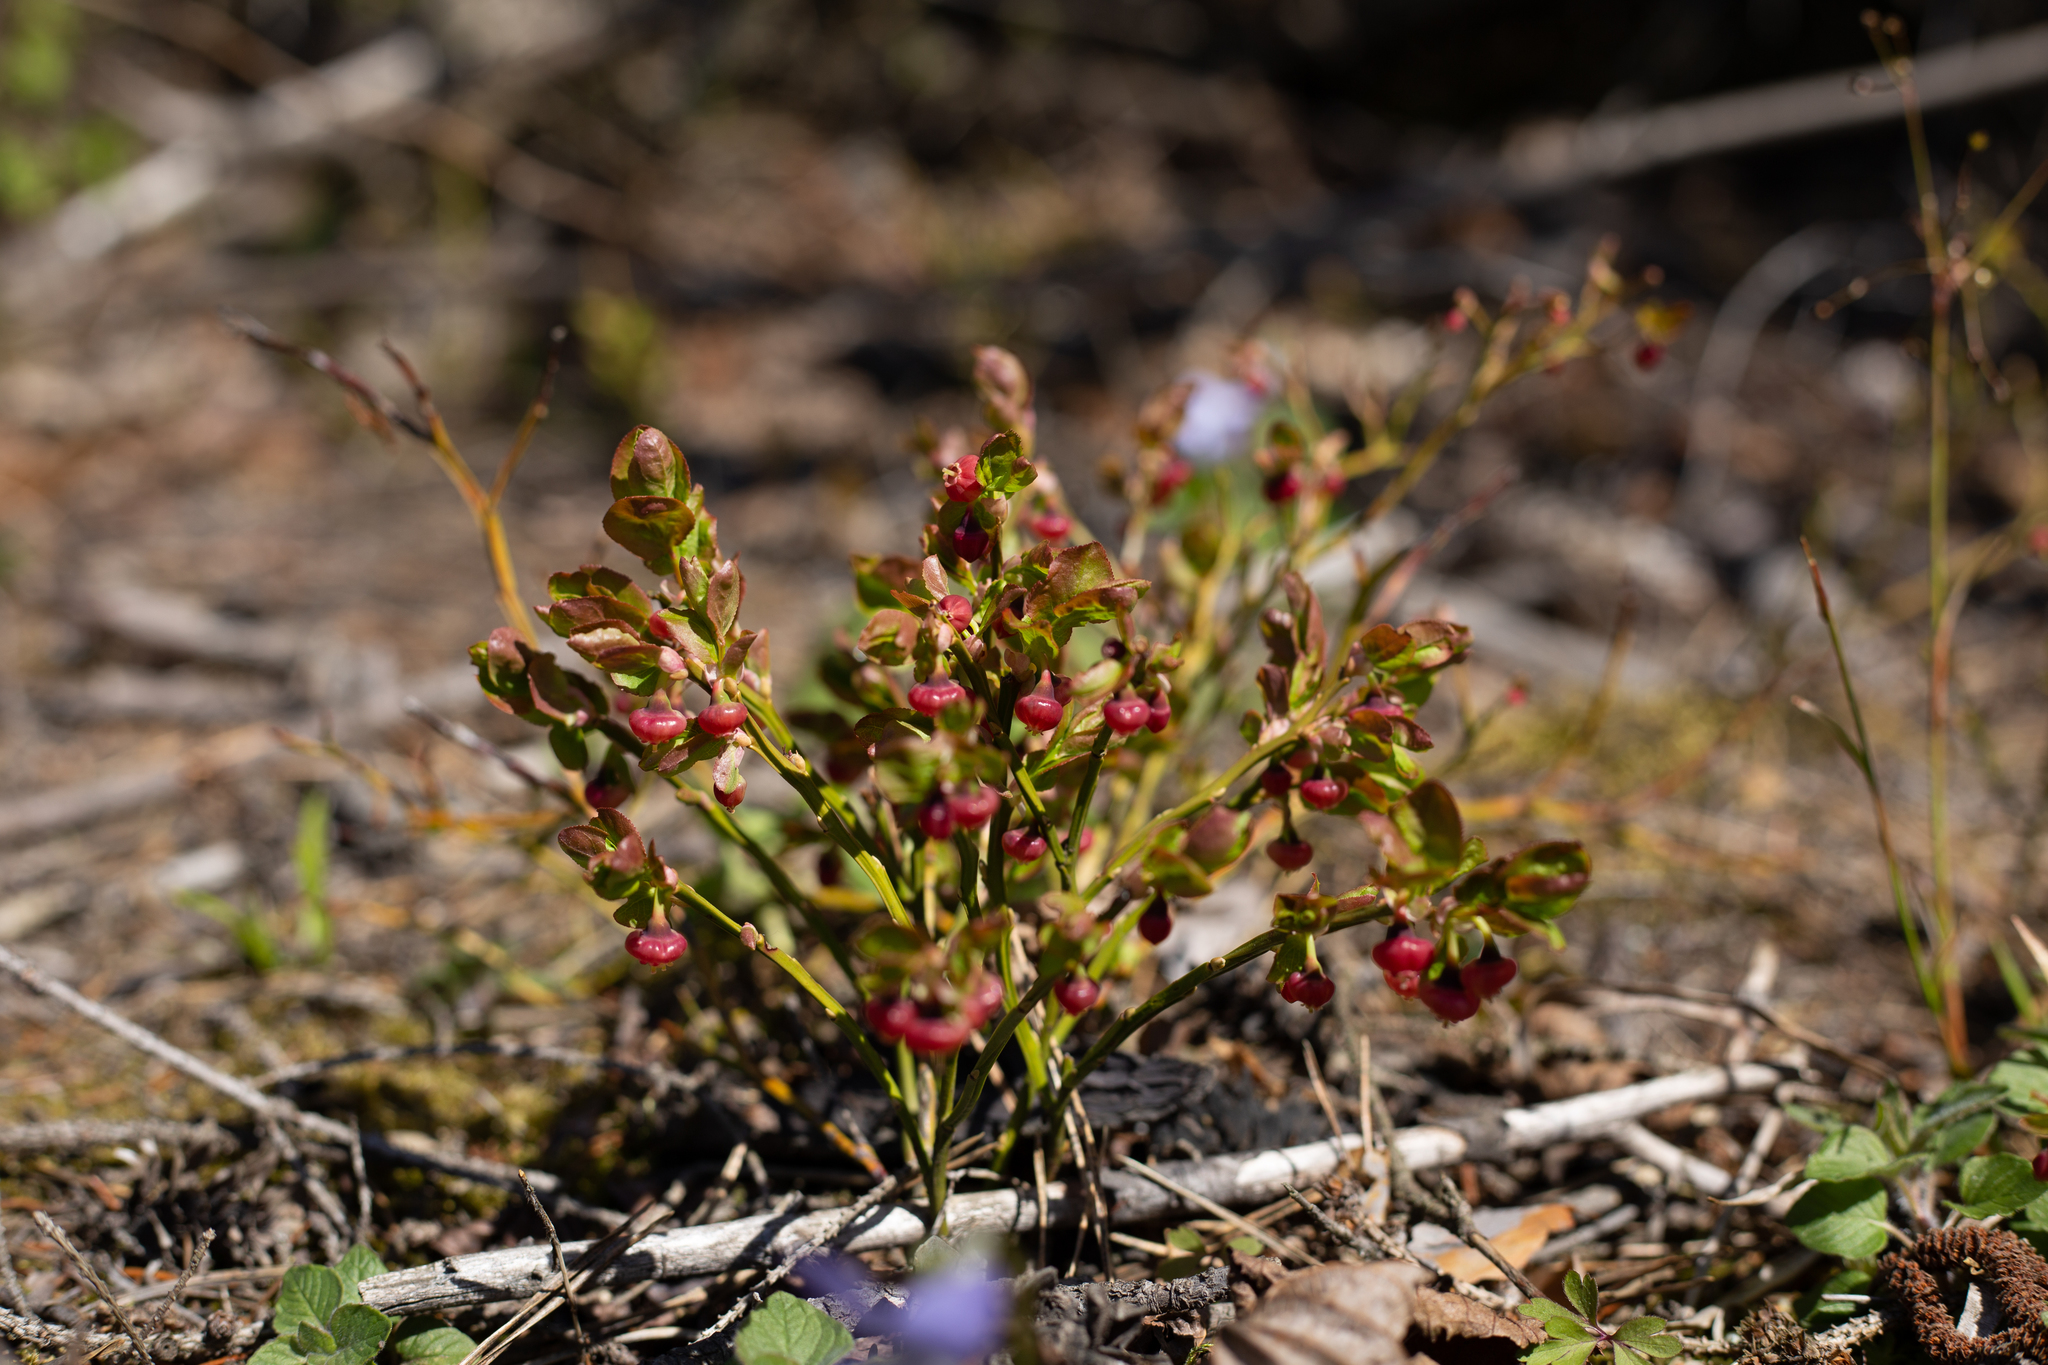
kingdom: Plantae
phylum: Tracheophyta
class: Magnoliopsida
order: Ericales
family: Ericaceae
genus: Vaccinium
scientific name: Vaccinium myrtillus
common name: Bilberry
